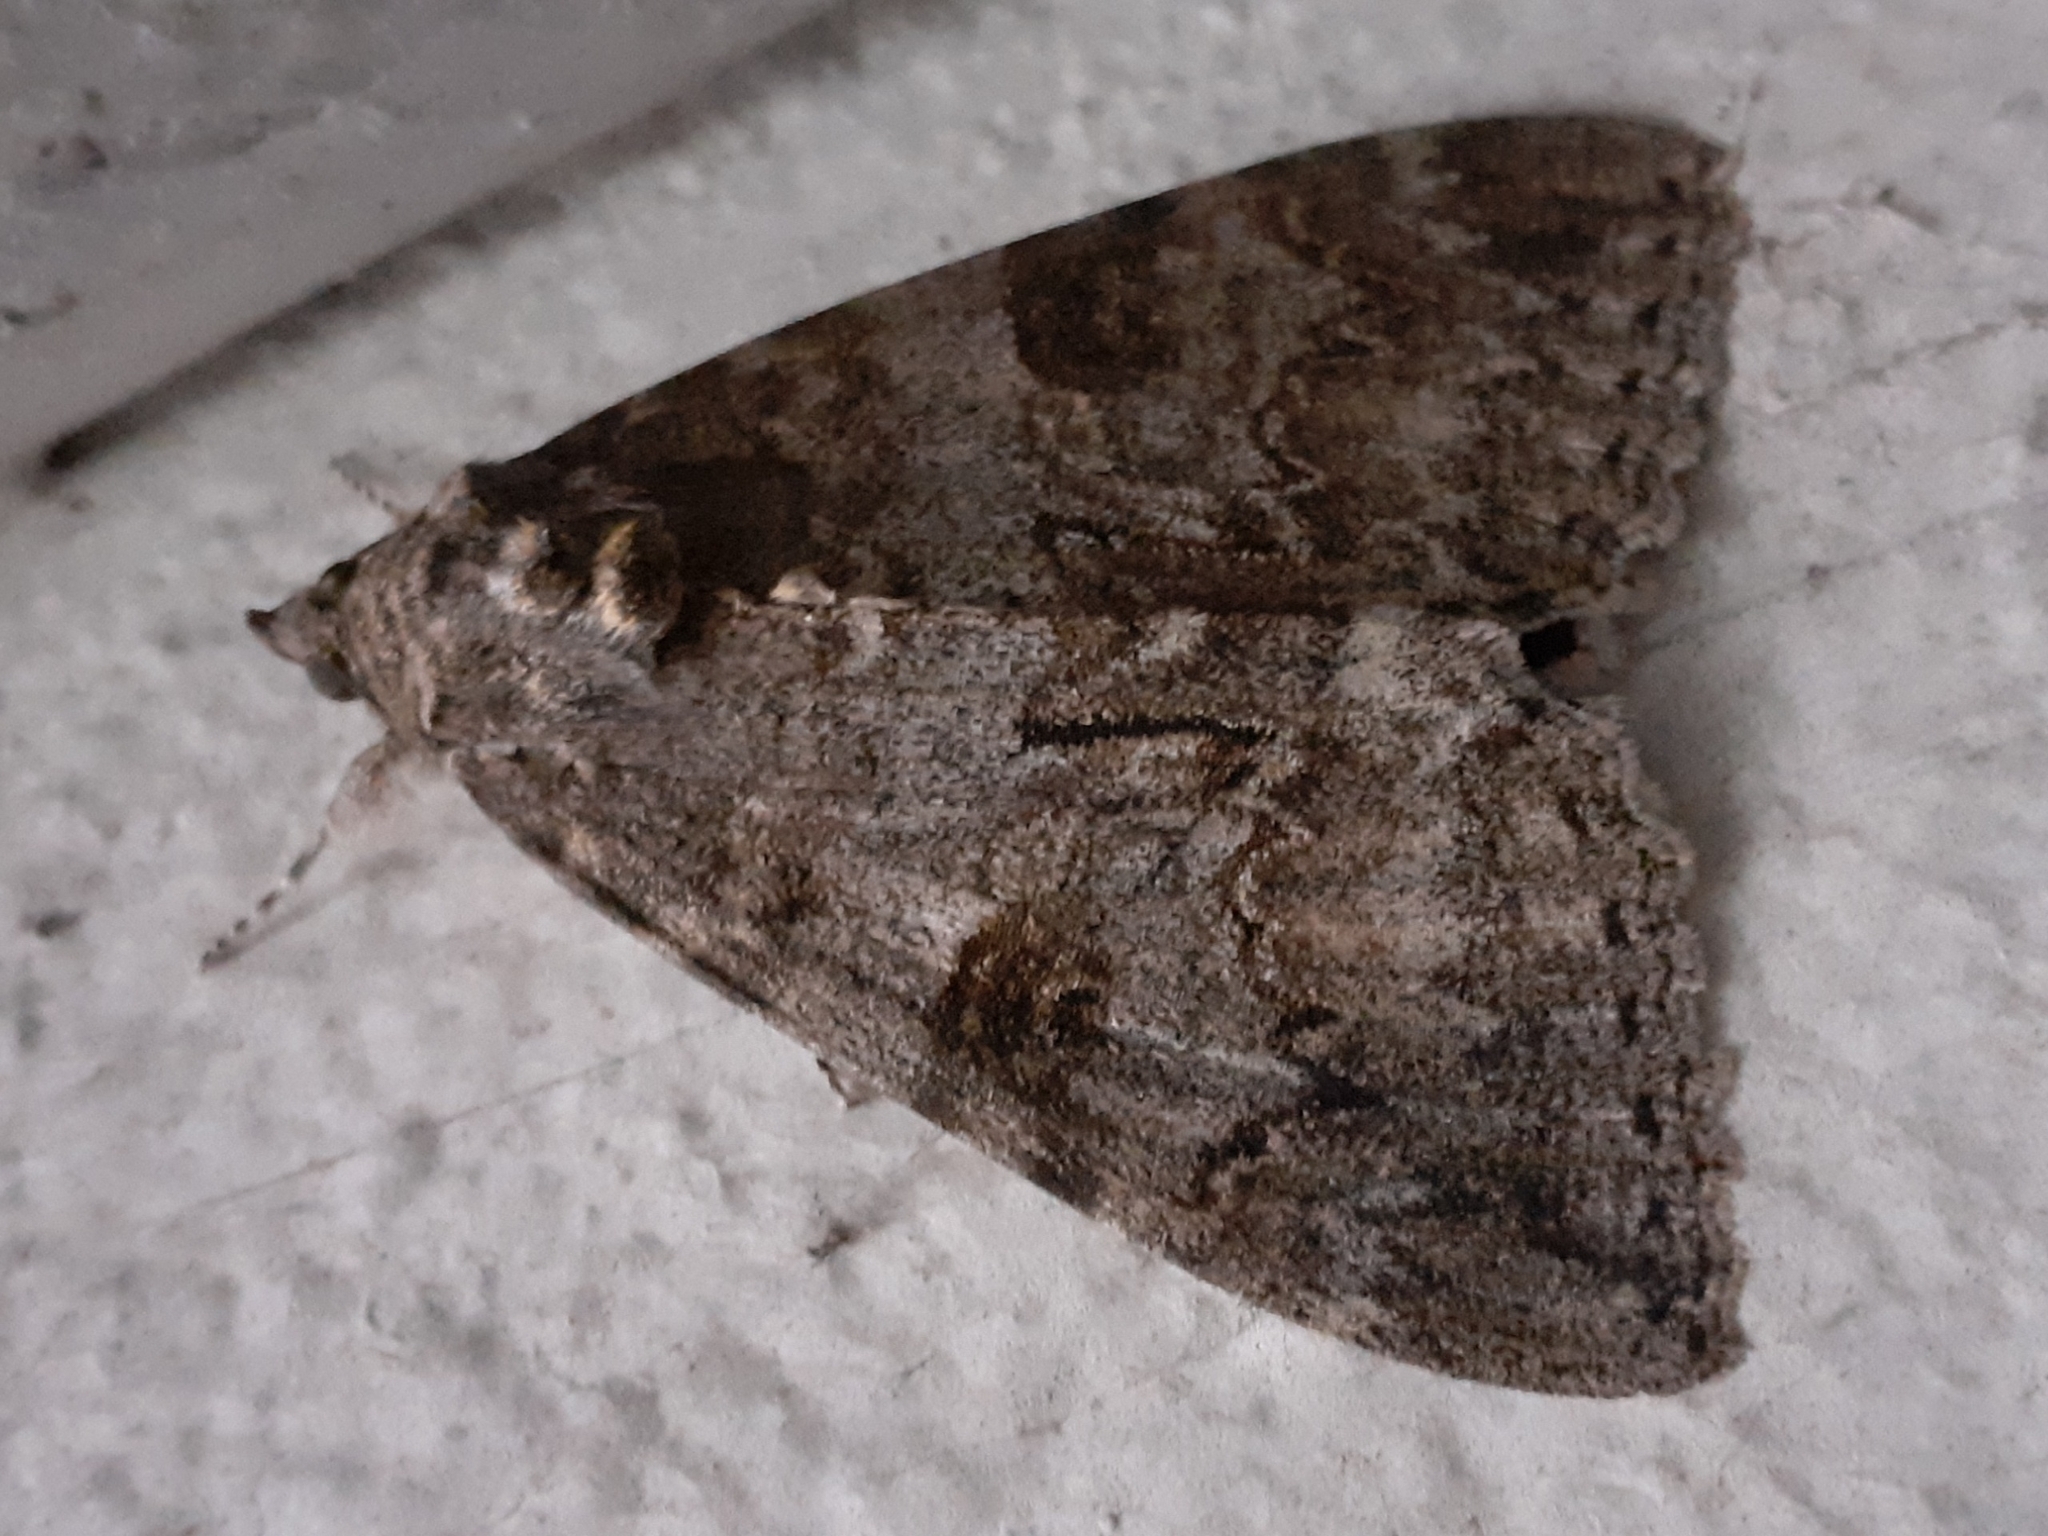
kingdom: Animalia
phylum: Arthropoda
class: Insecta
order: Lepidoptera
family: Erebidae
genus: Catocala
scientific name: Catocala nupta
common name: Red underwing
